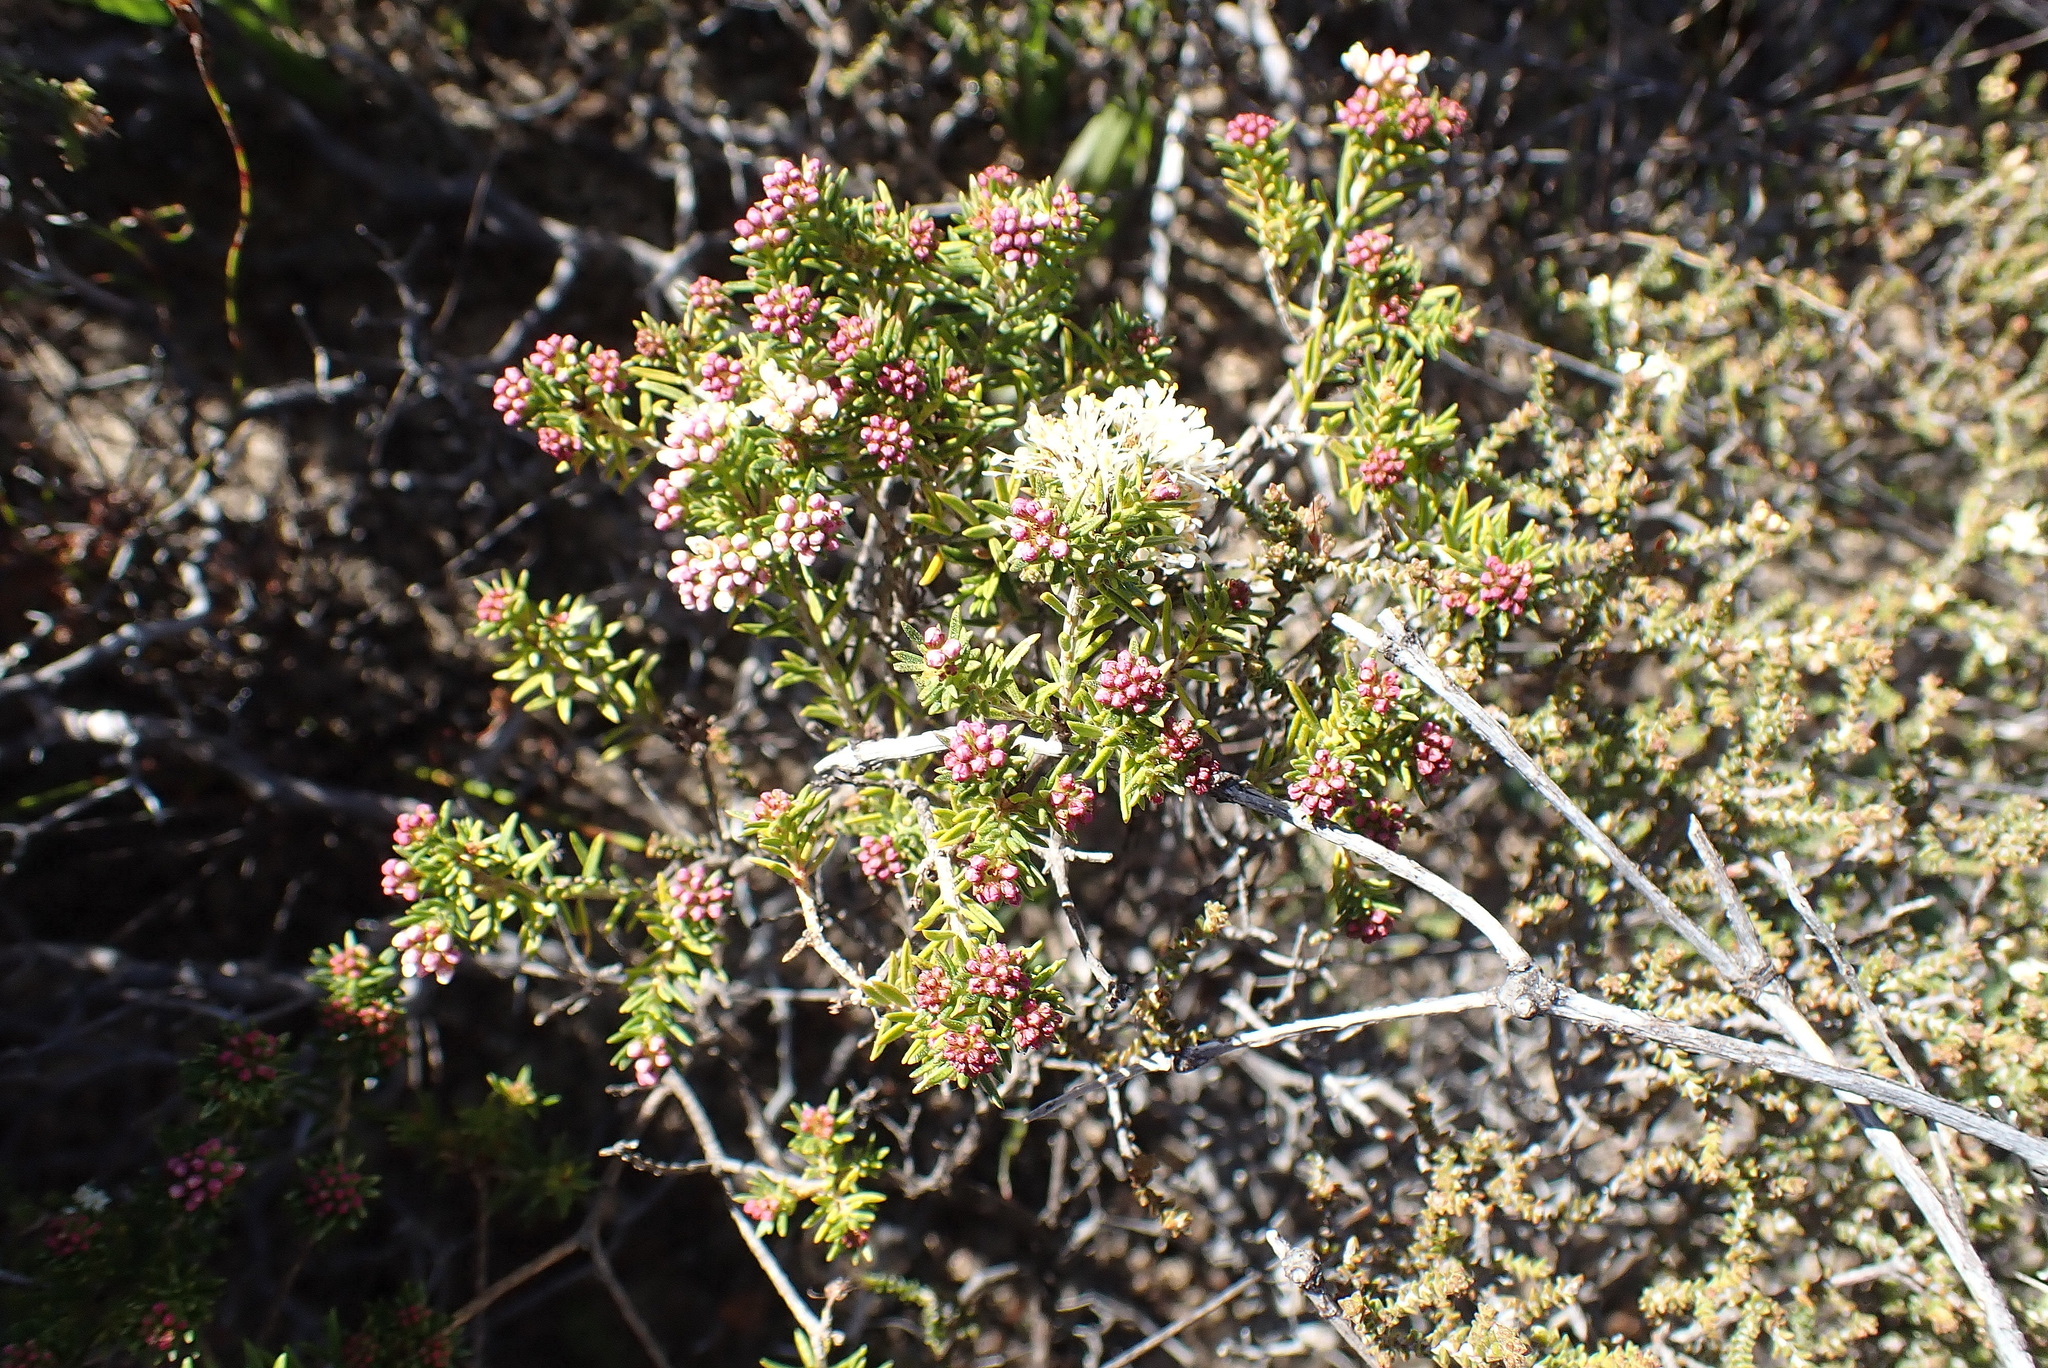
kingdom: Plantae
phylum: Tracheophyta
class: Magnoliopsida
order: Sapindales
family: Rutaceae
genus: Agathosma
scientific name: Agathosma giftbergensis
